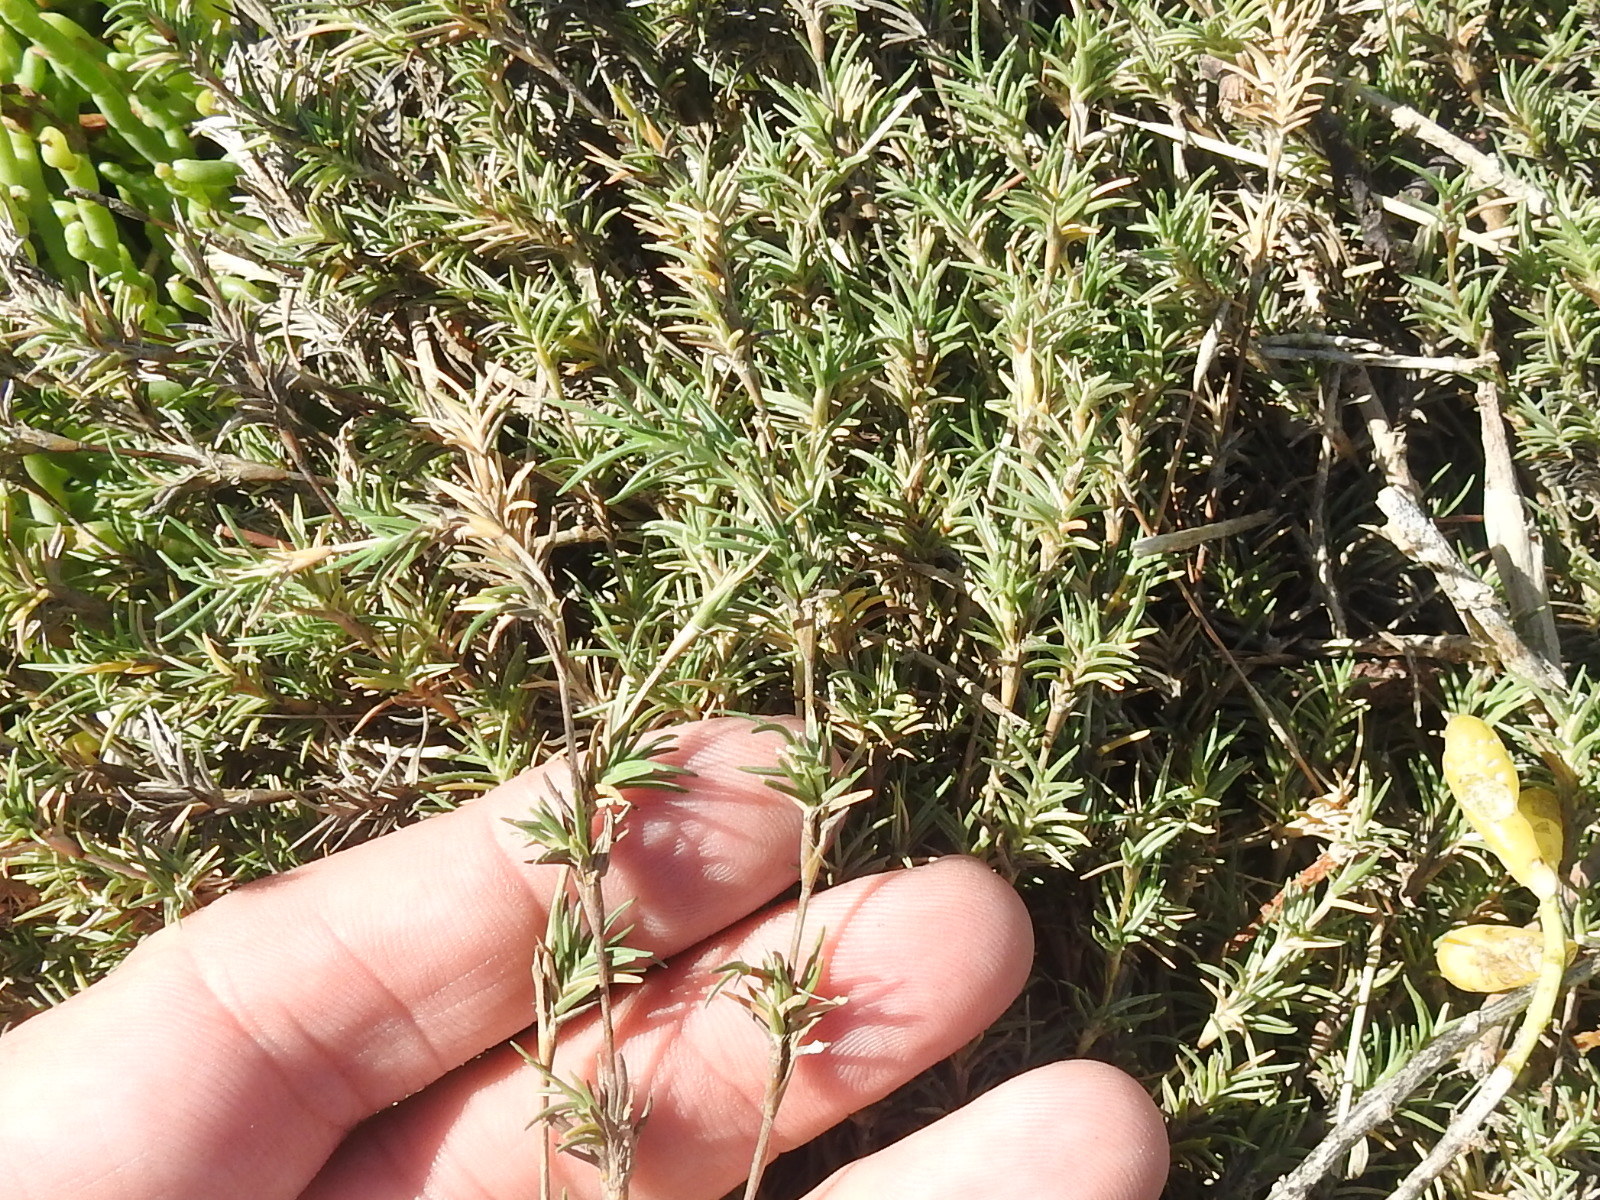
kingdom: Plantae
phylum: Tracheophyta
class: Liliopsida
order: Poales
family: Poaceae
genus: Distichlis
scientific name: Distichlis littoralis
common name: Shore grass
